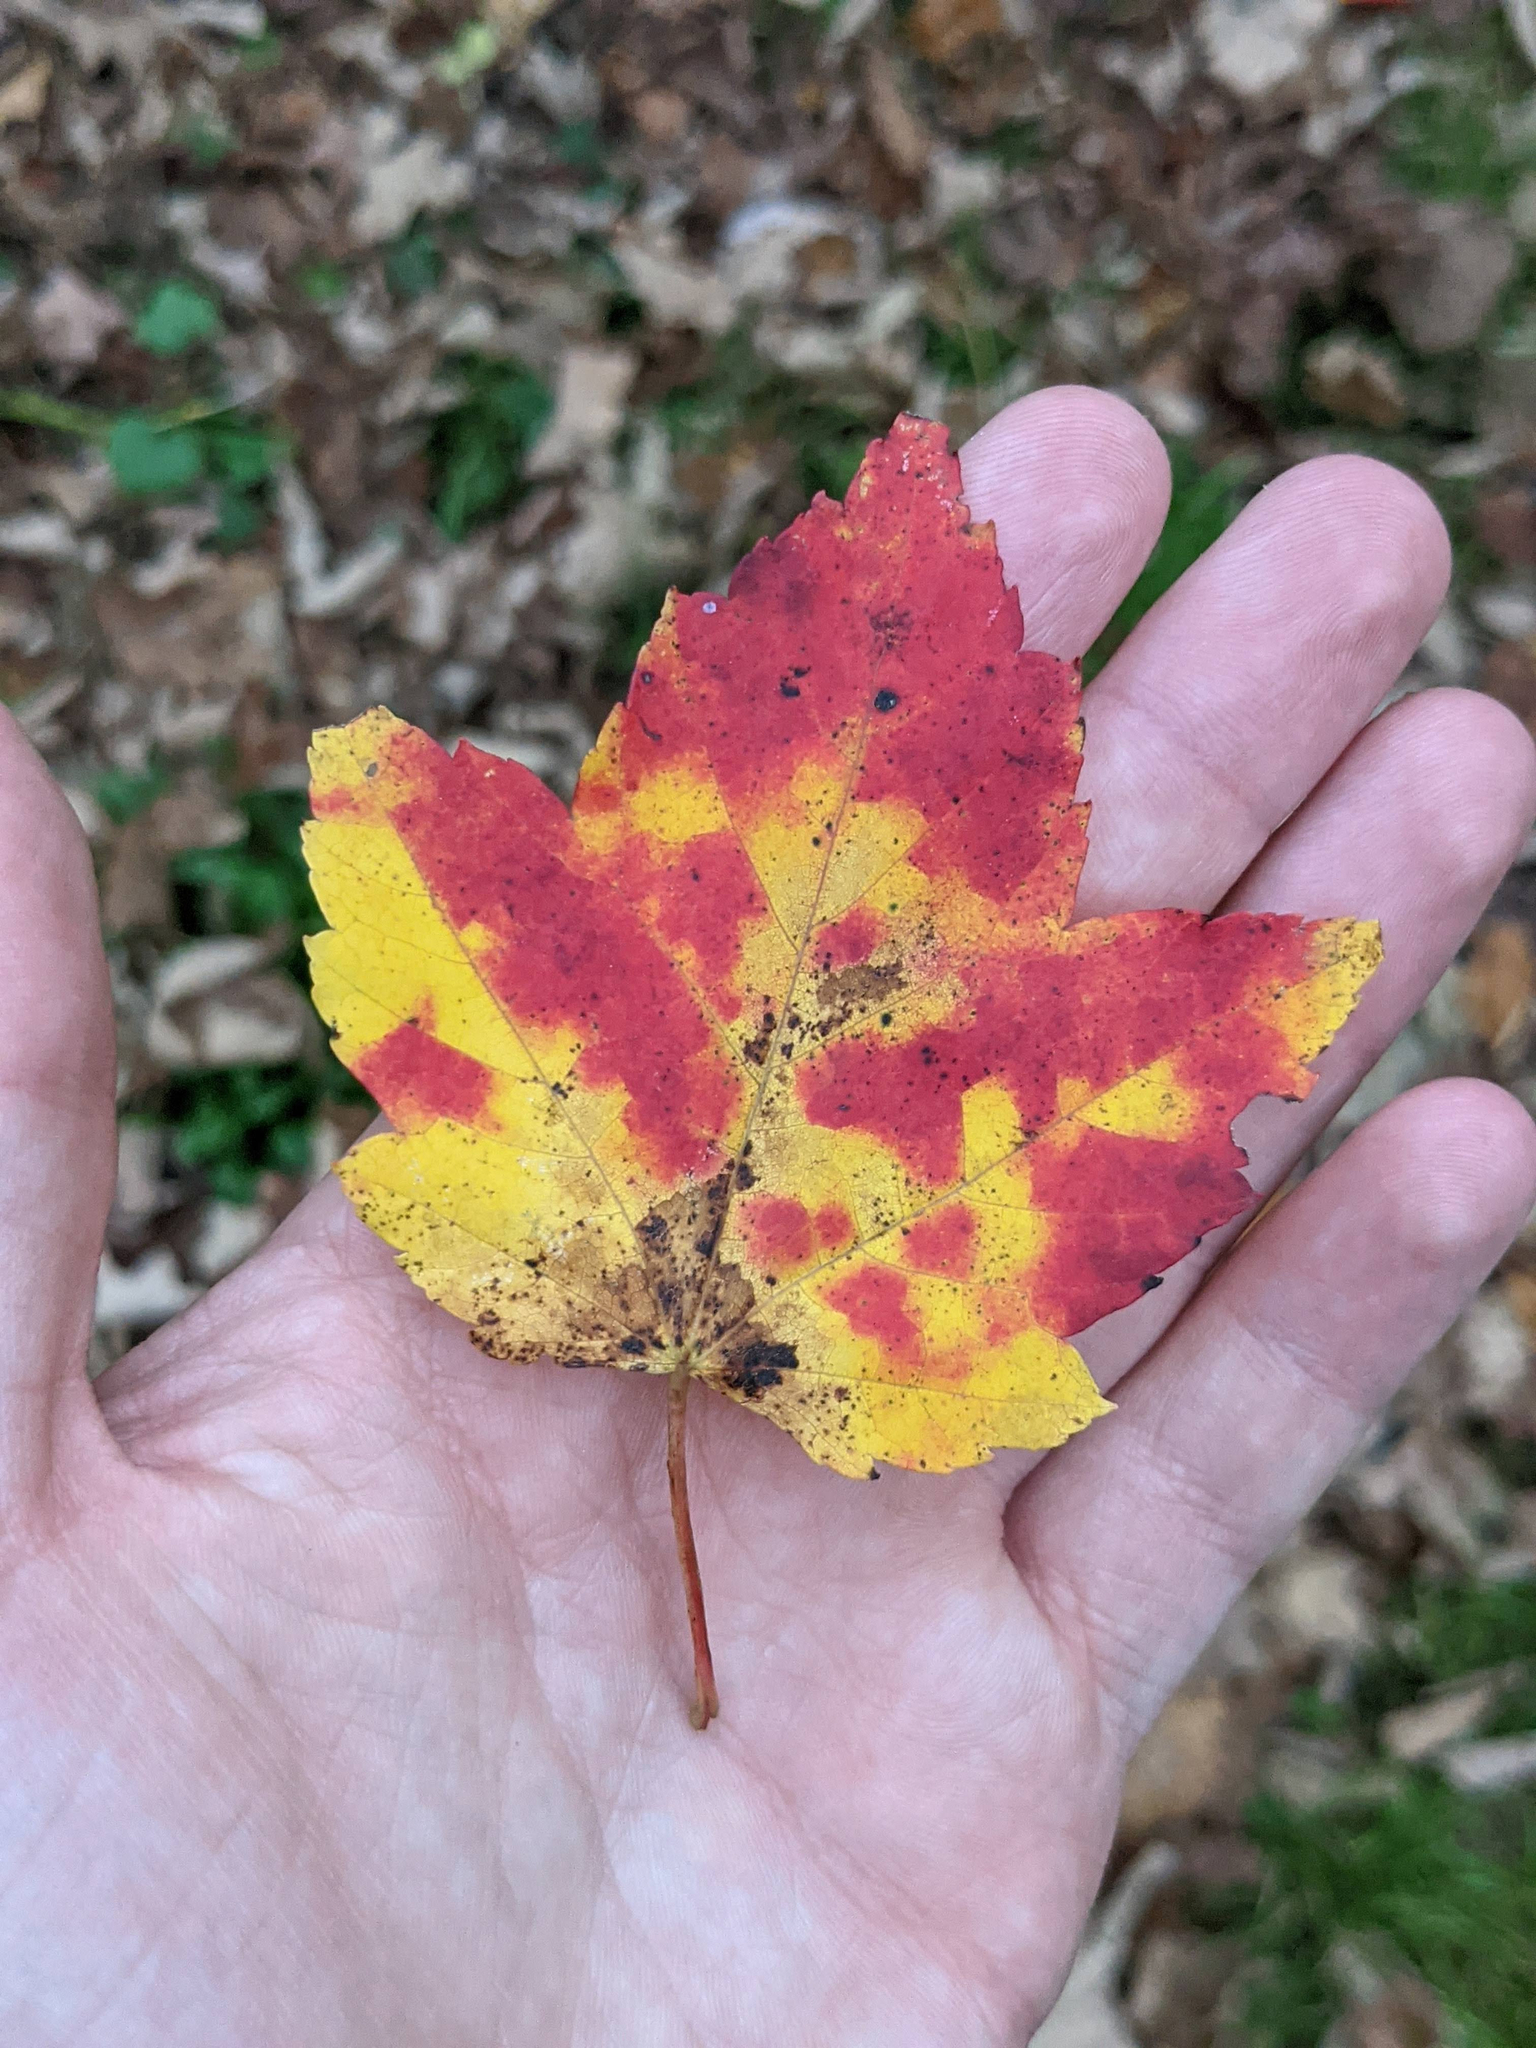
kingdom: Plantae
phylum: Tracheophyta
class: Magnoliopsida
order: Sapindales
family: Sapindaceae
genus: Acer
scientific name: Acer rubrum
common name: Red maple
